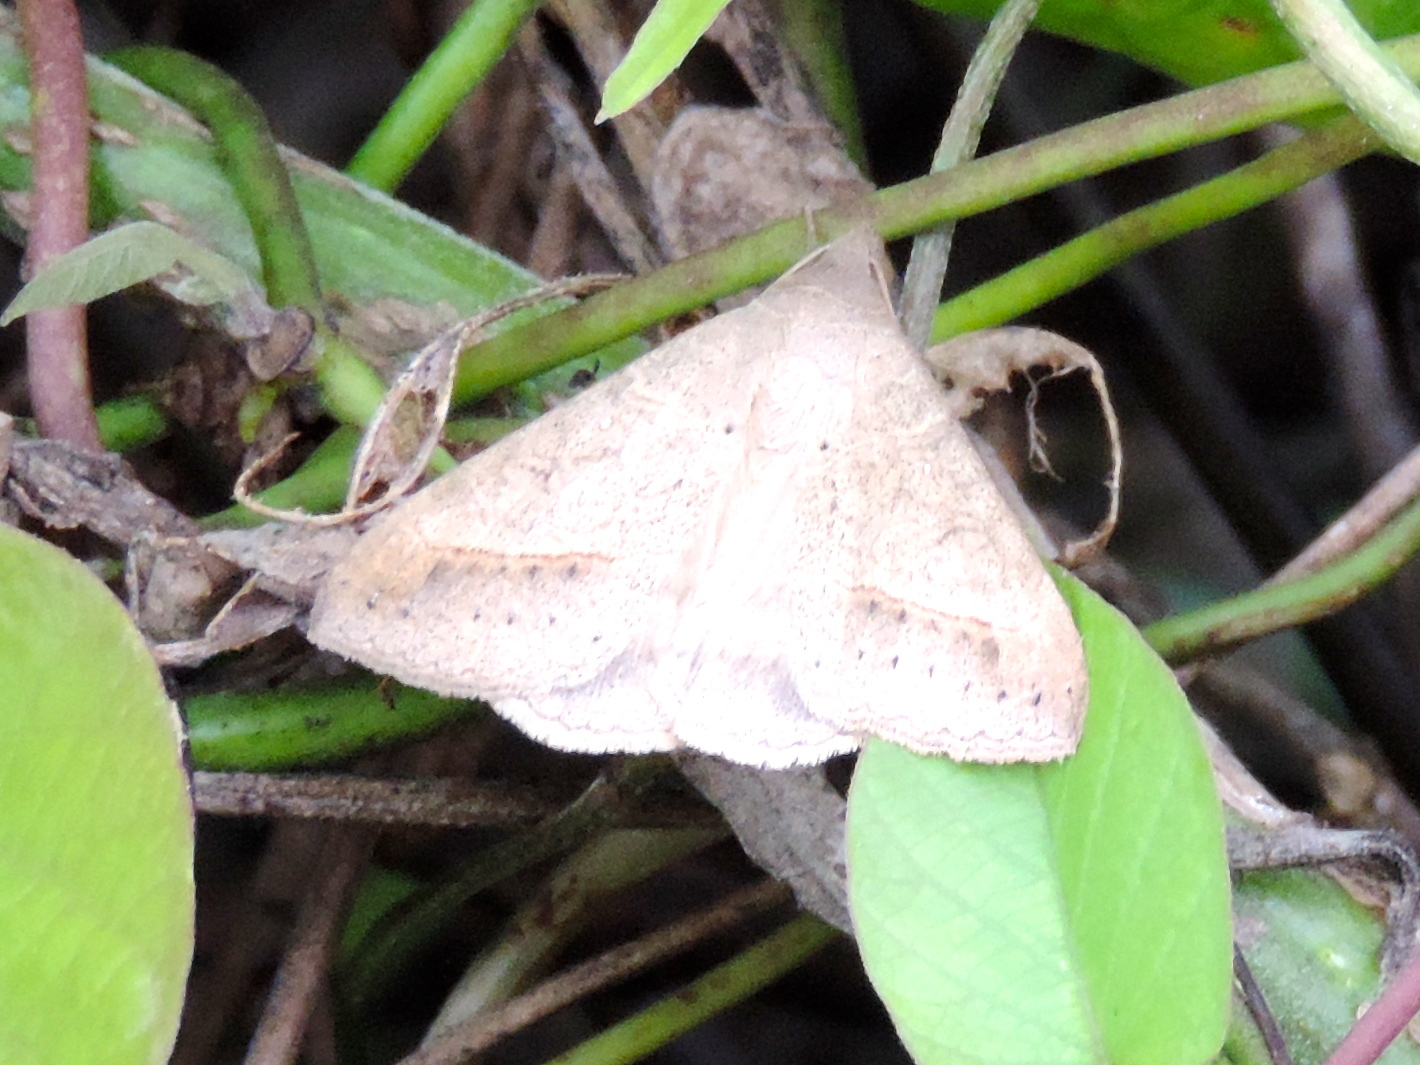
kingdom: Animalia
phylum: Arthropoda
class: Insecta
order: Lepidoptera
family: Erebidae
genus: Mocis
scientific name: Mocis
